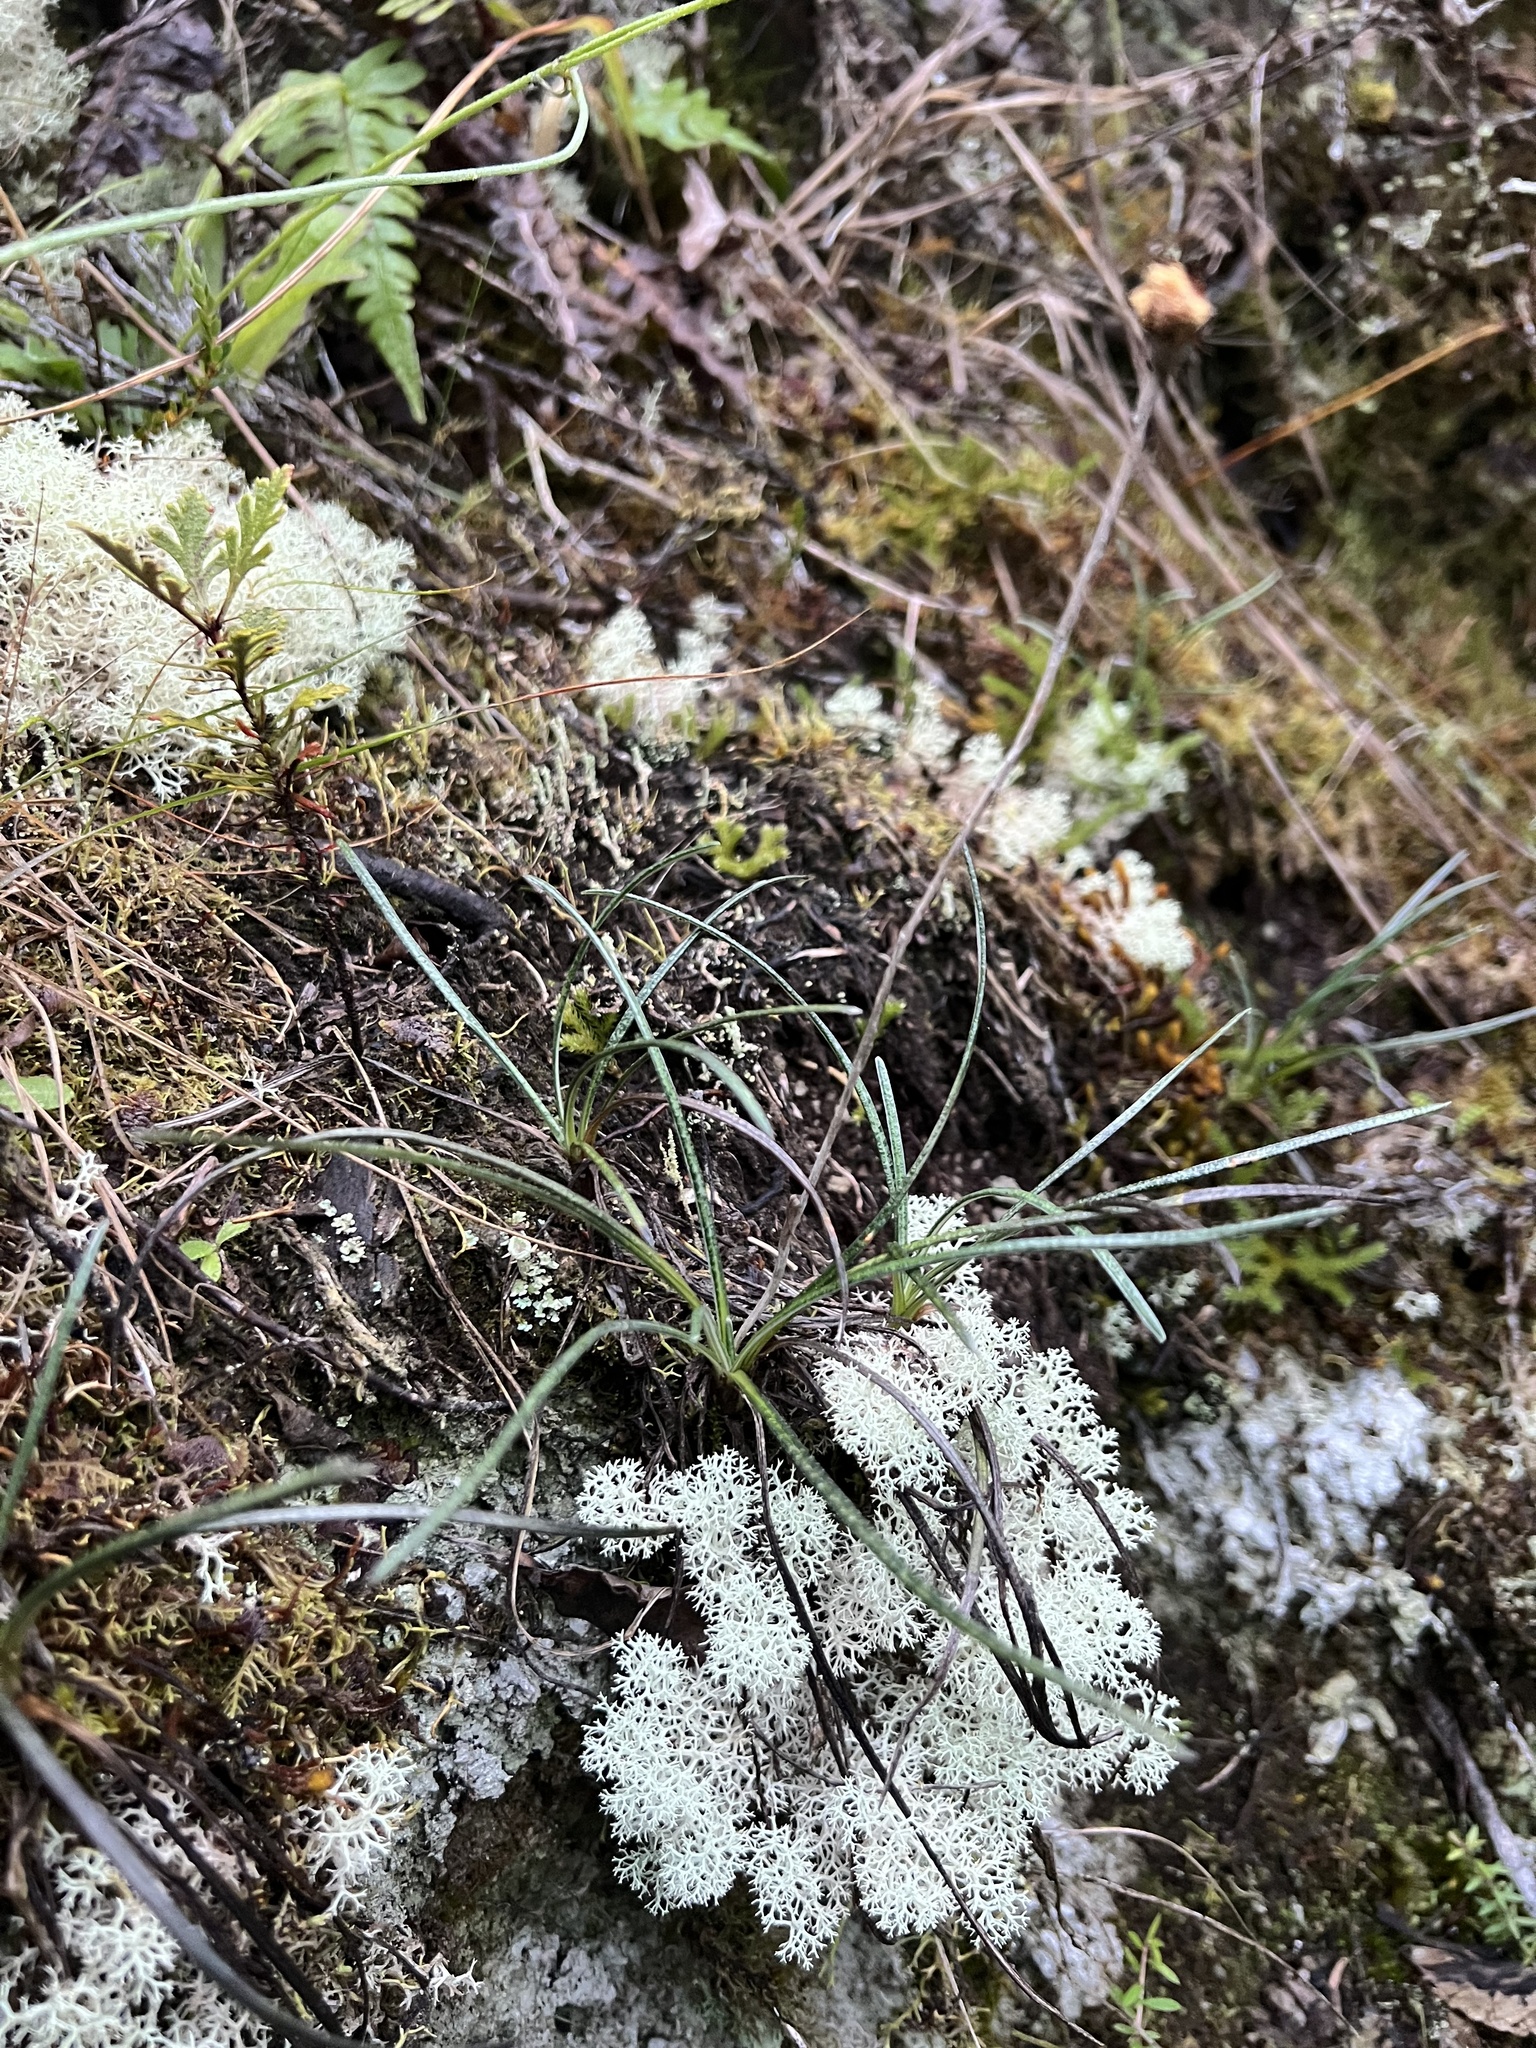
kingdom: Plantae
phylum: Tracheophyta
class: Magnoliopsida
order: Asterales
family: Asteraceae
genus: Celmisia
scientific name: Celmisia gracilenta
